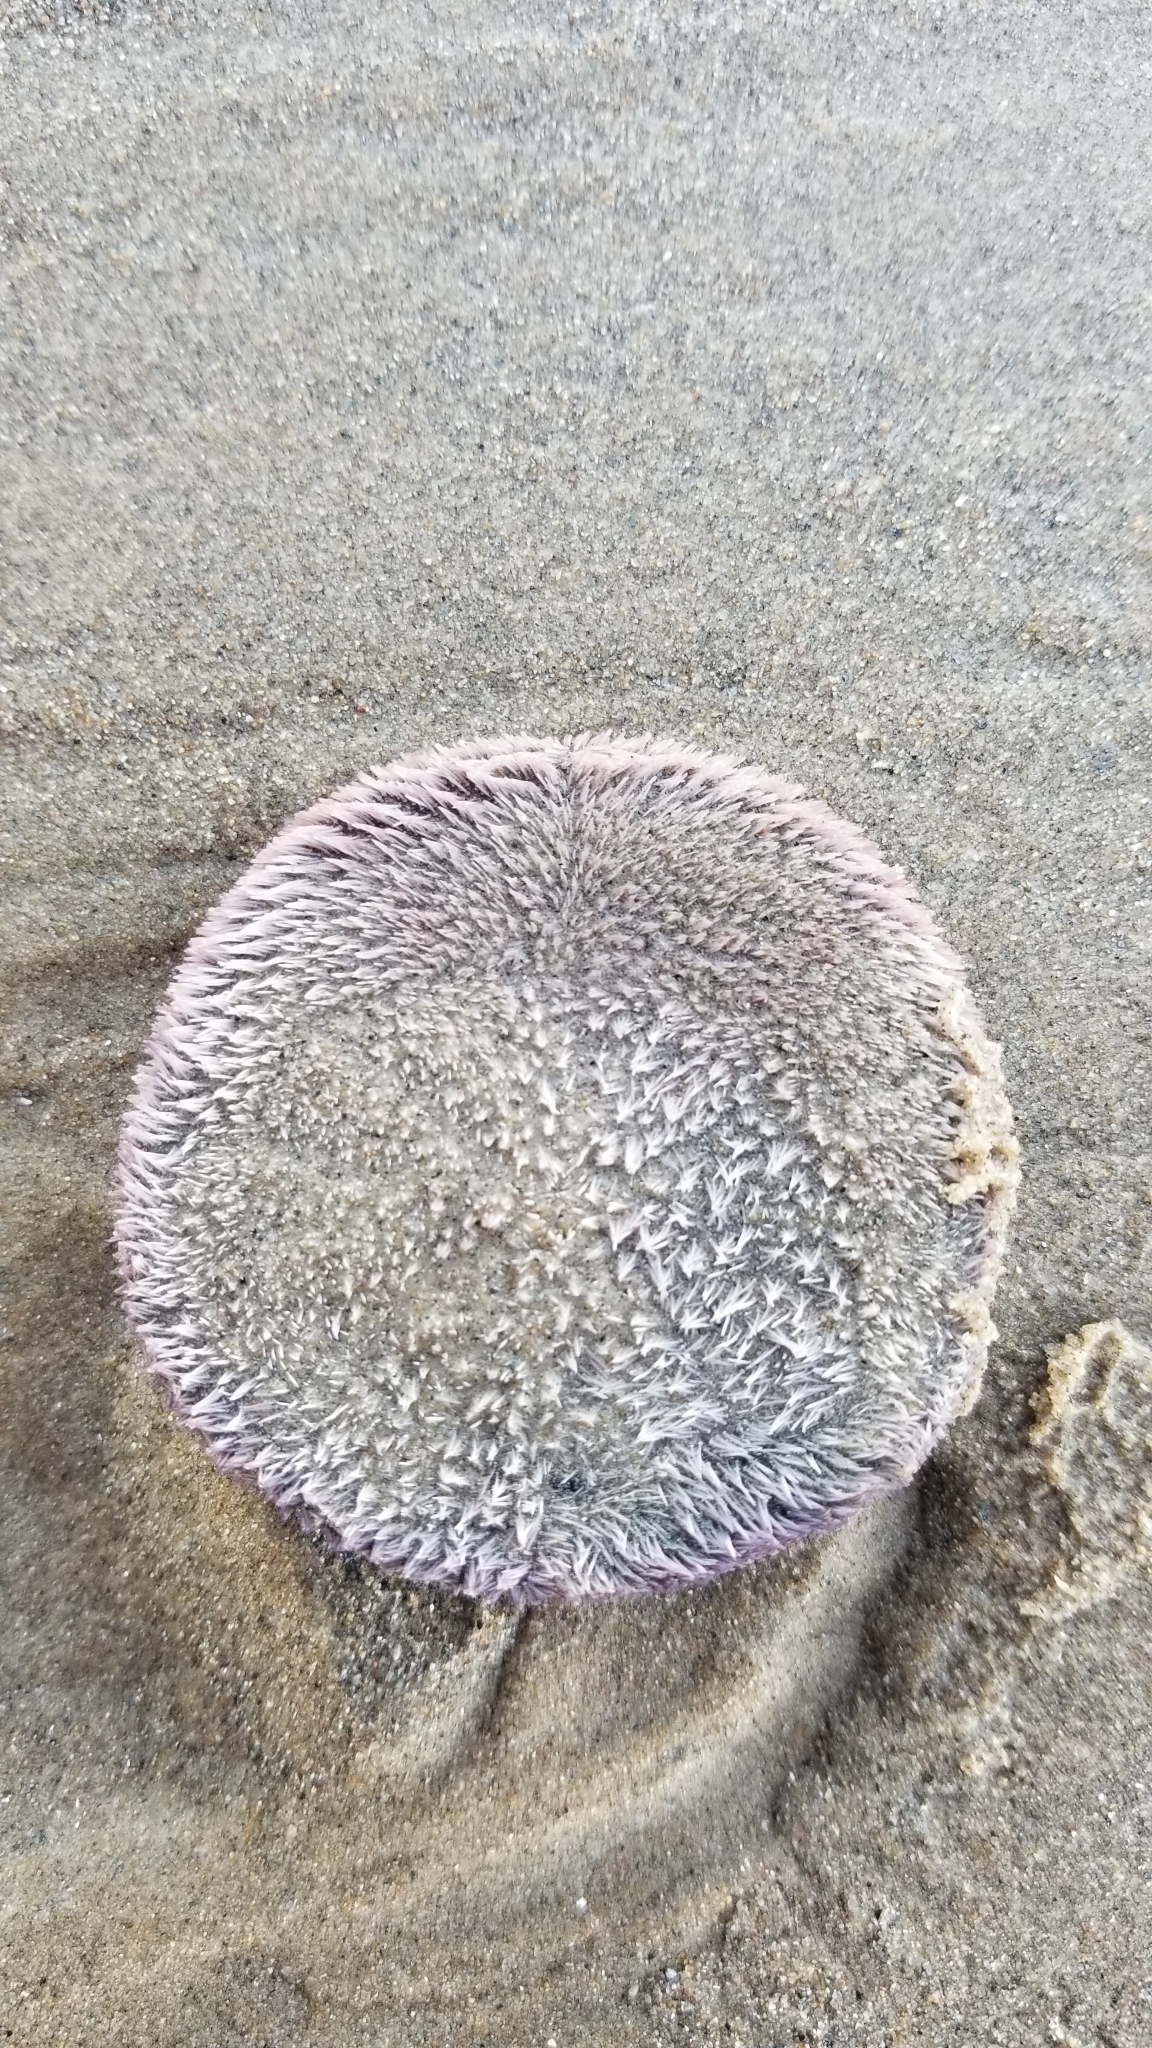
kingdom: Animalia
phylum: Echinodermata
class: Echinoidea
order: Echinolampadacea
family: Dendrasteridae
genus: Dendraster
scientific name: Dendraster excentricus
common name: Eccentric sand dollar sea urchin
